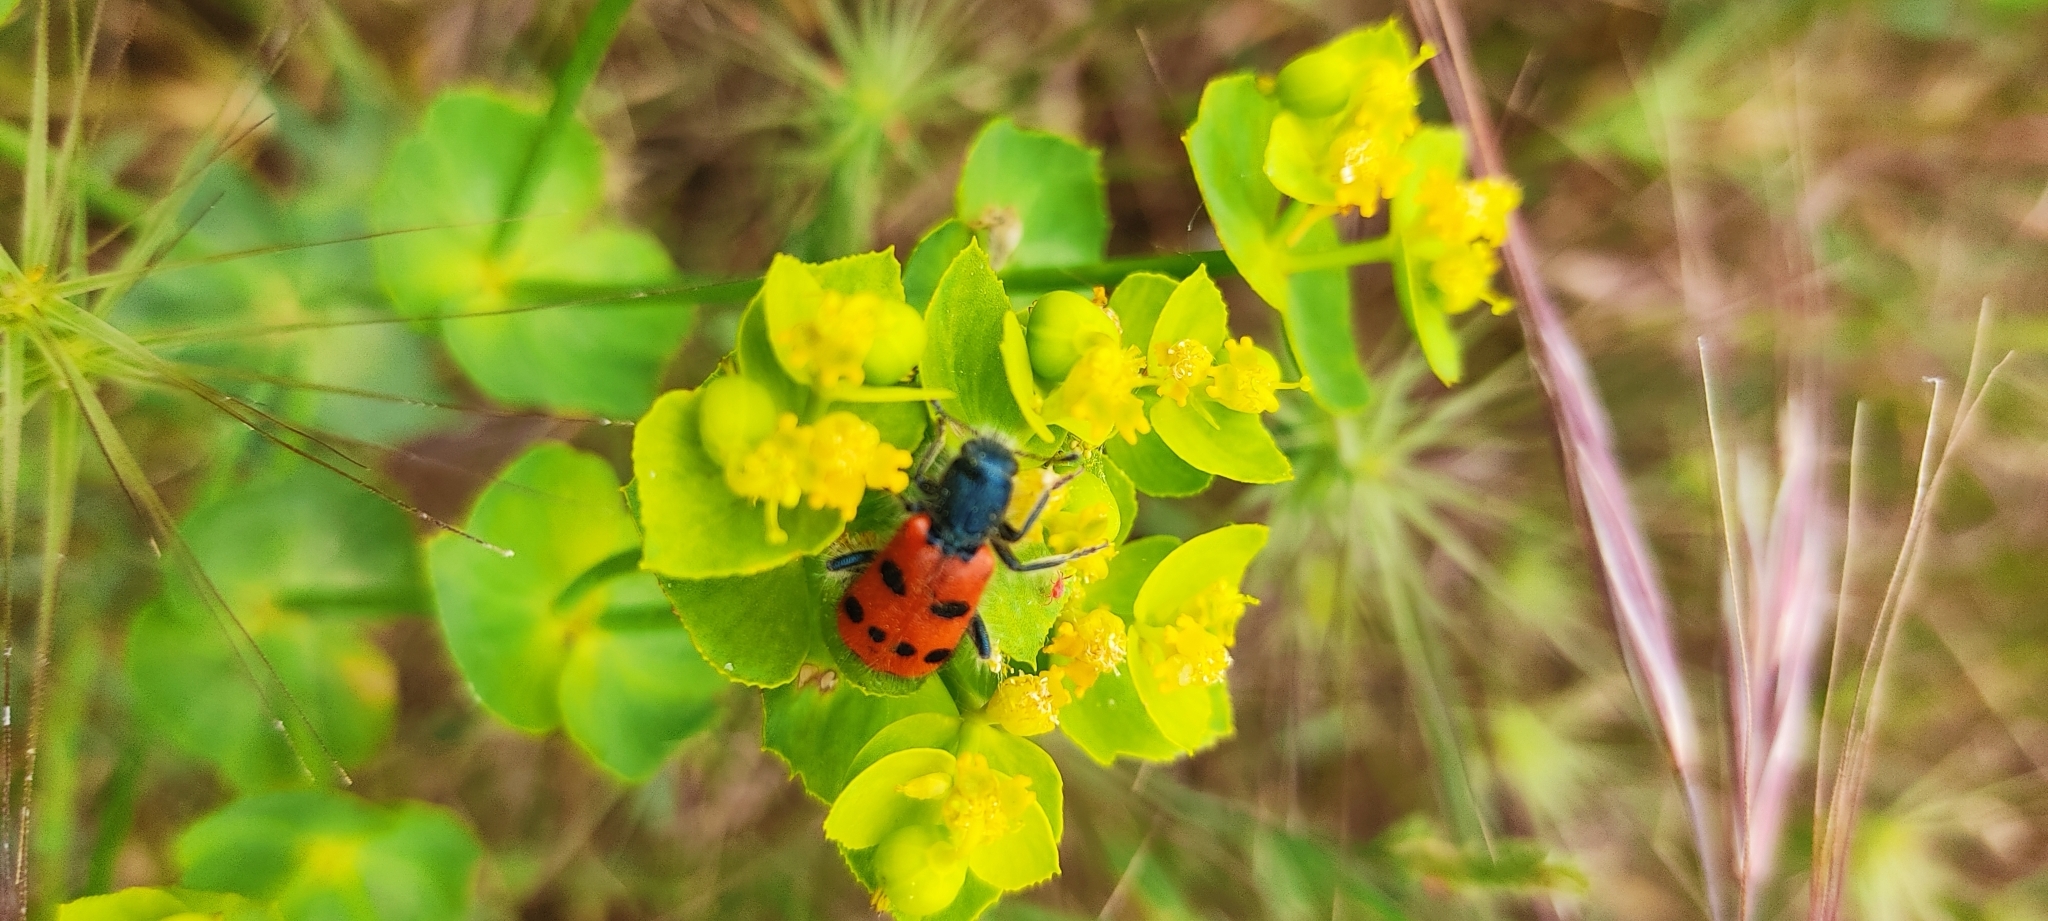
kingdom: Animalia
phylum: Arthropoda
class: Insecta
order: Coleoptera
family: Cleridae
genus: Trichodes
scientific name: Trichodes octopunctatus
